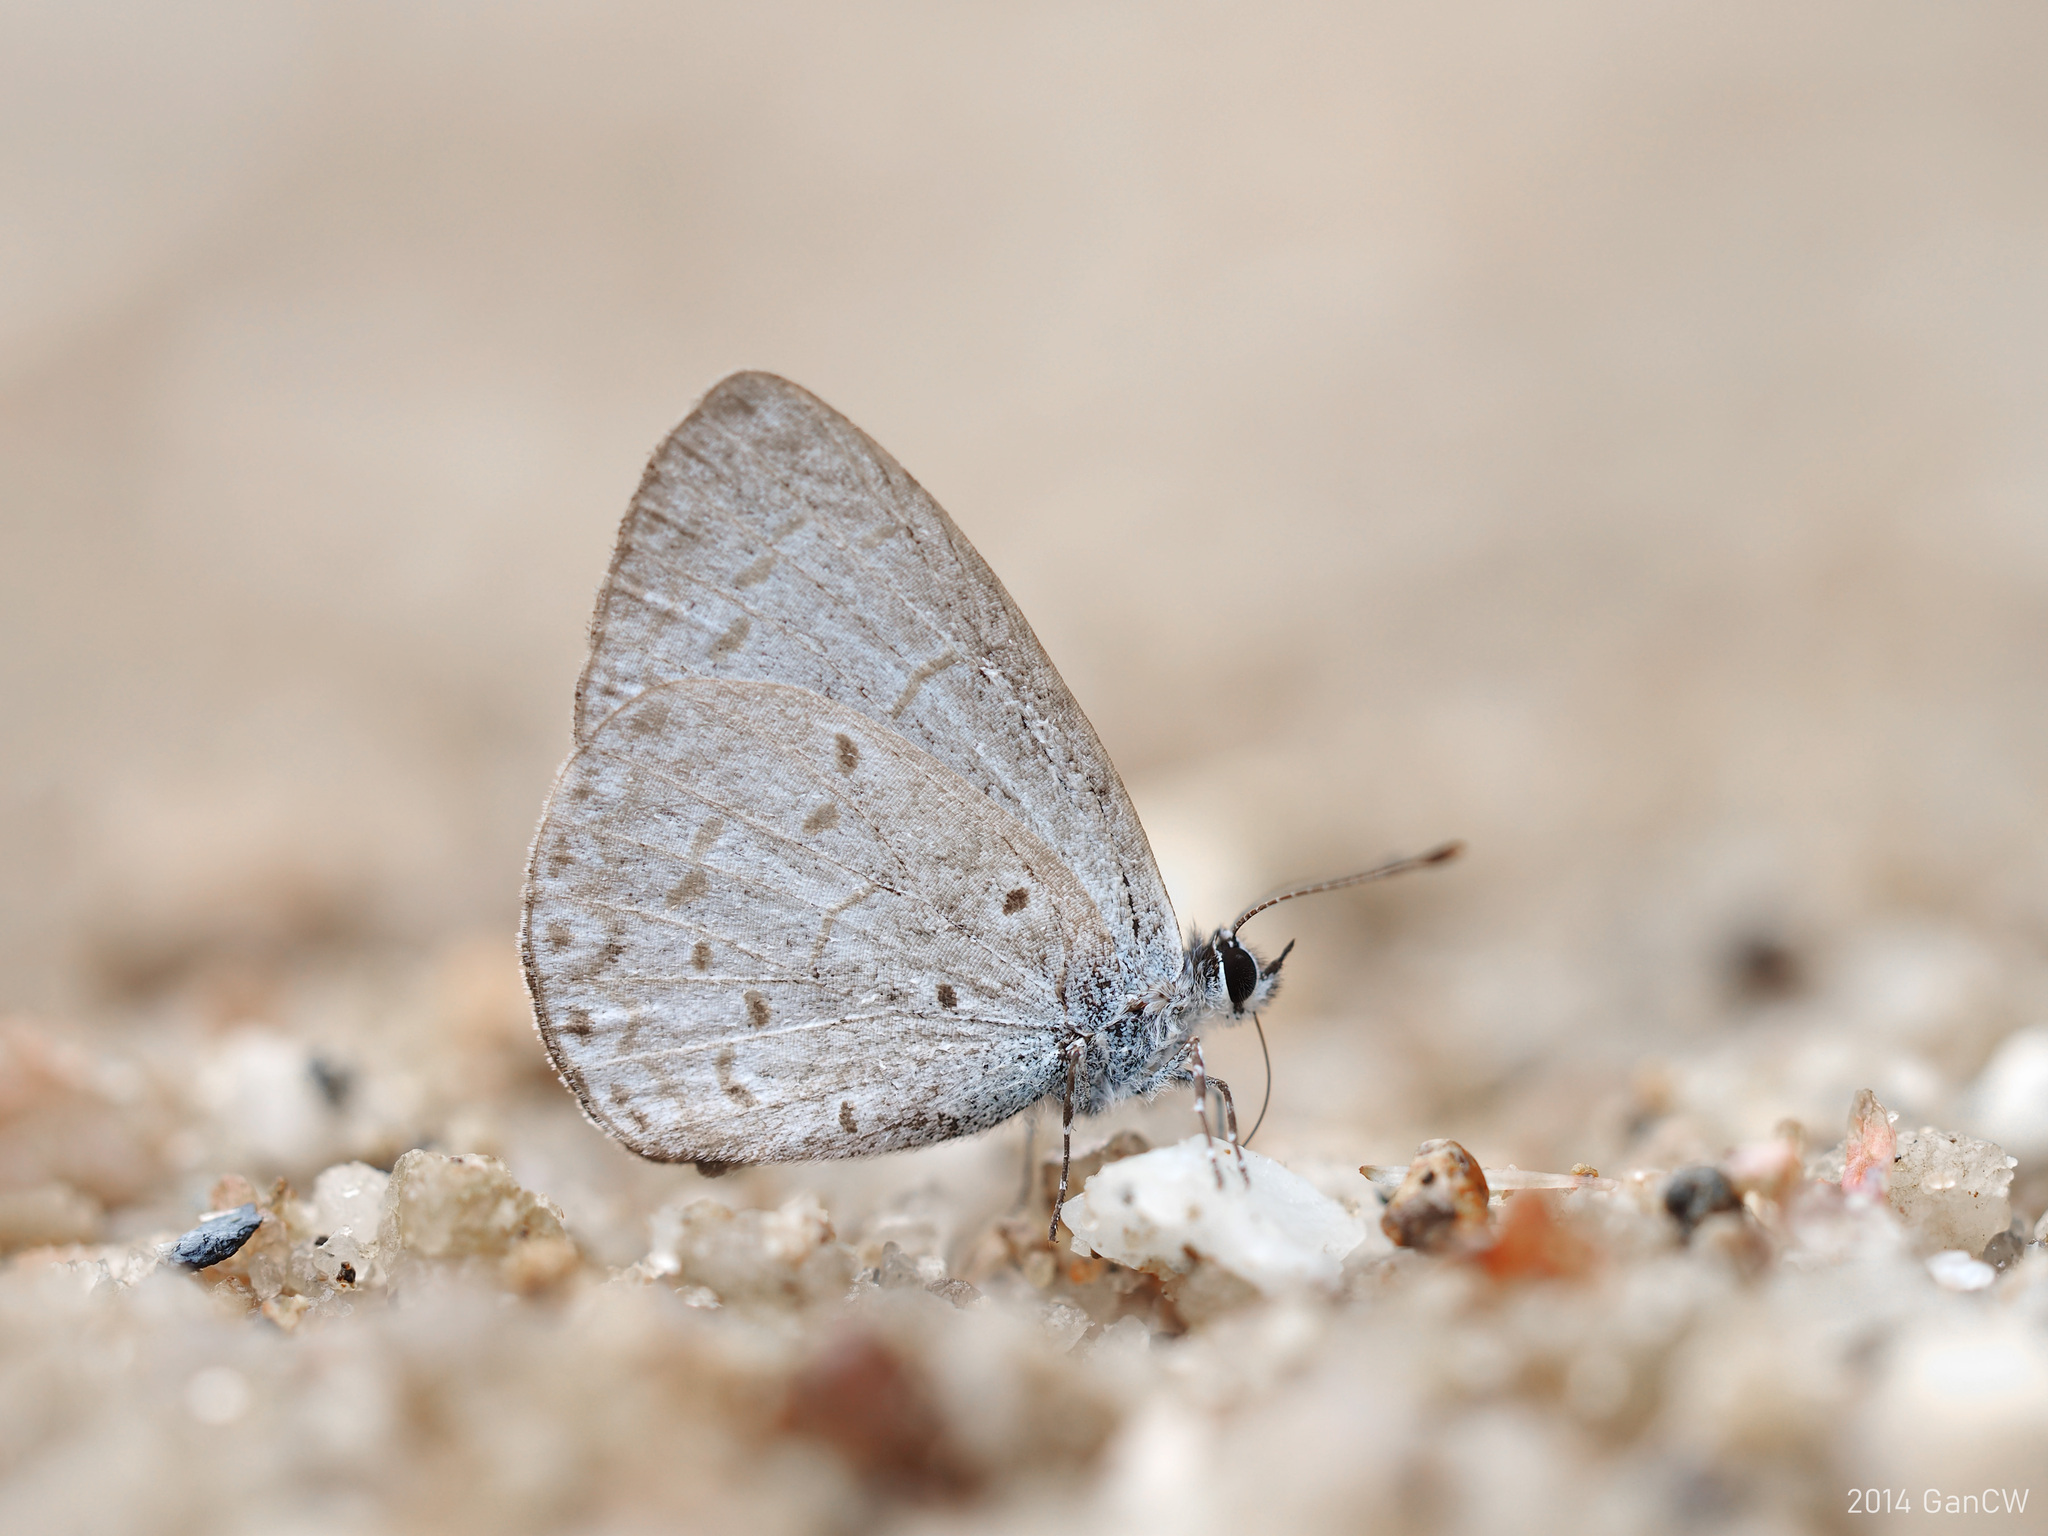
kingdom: Animalia
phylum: Arthropoda
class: Insecta
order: Lepidoptera
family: Lycaenidae
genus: Udara
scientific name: Udara
